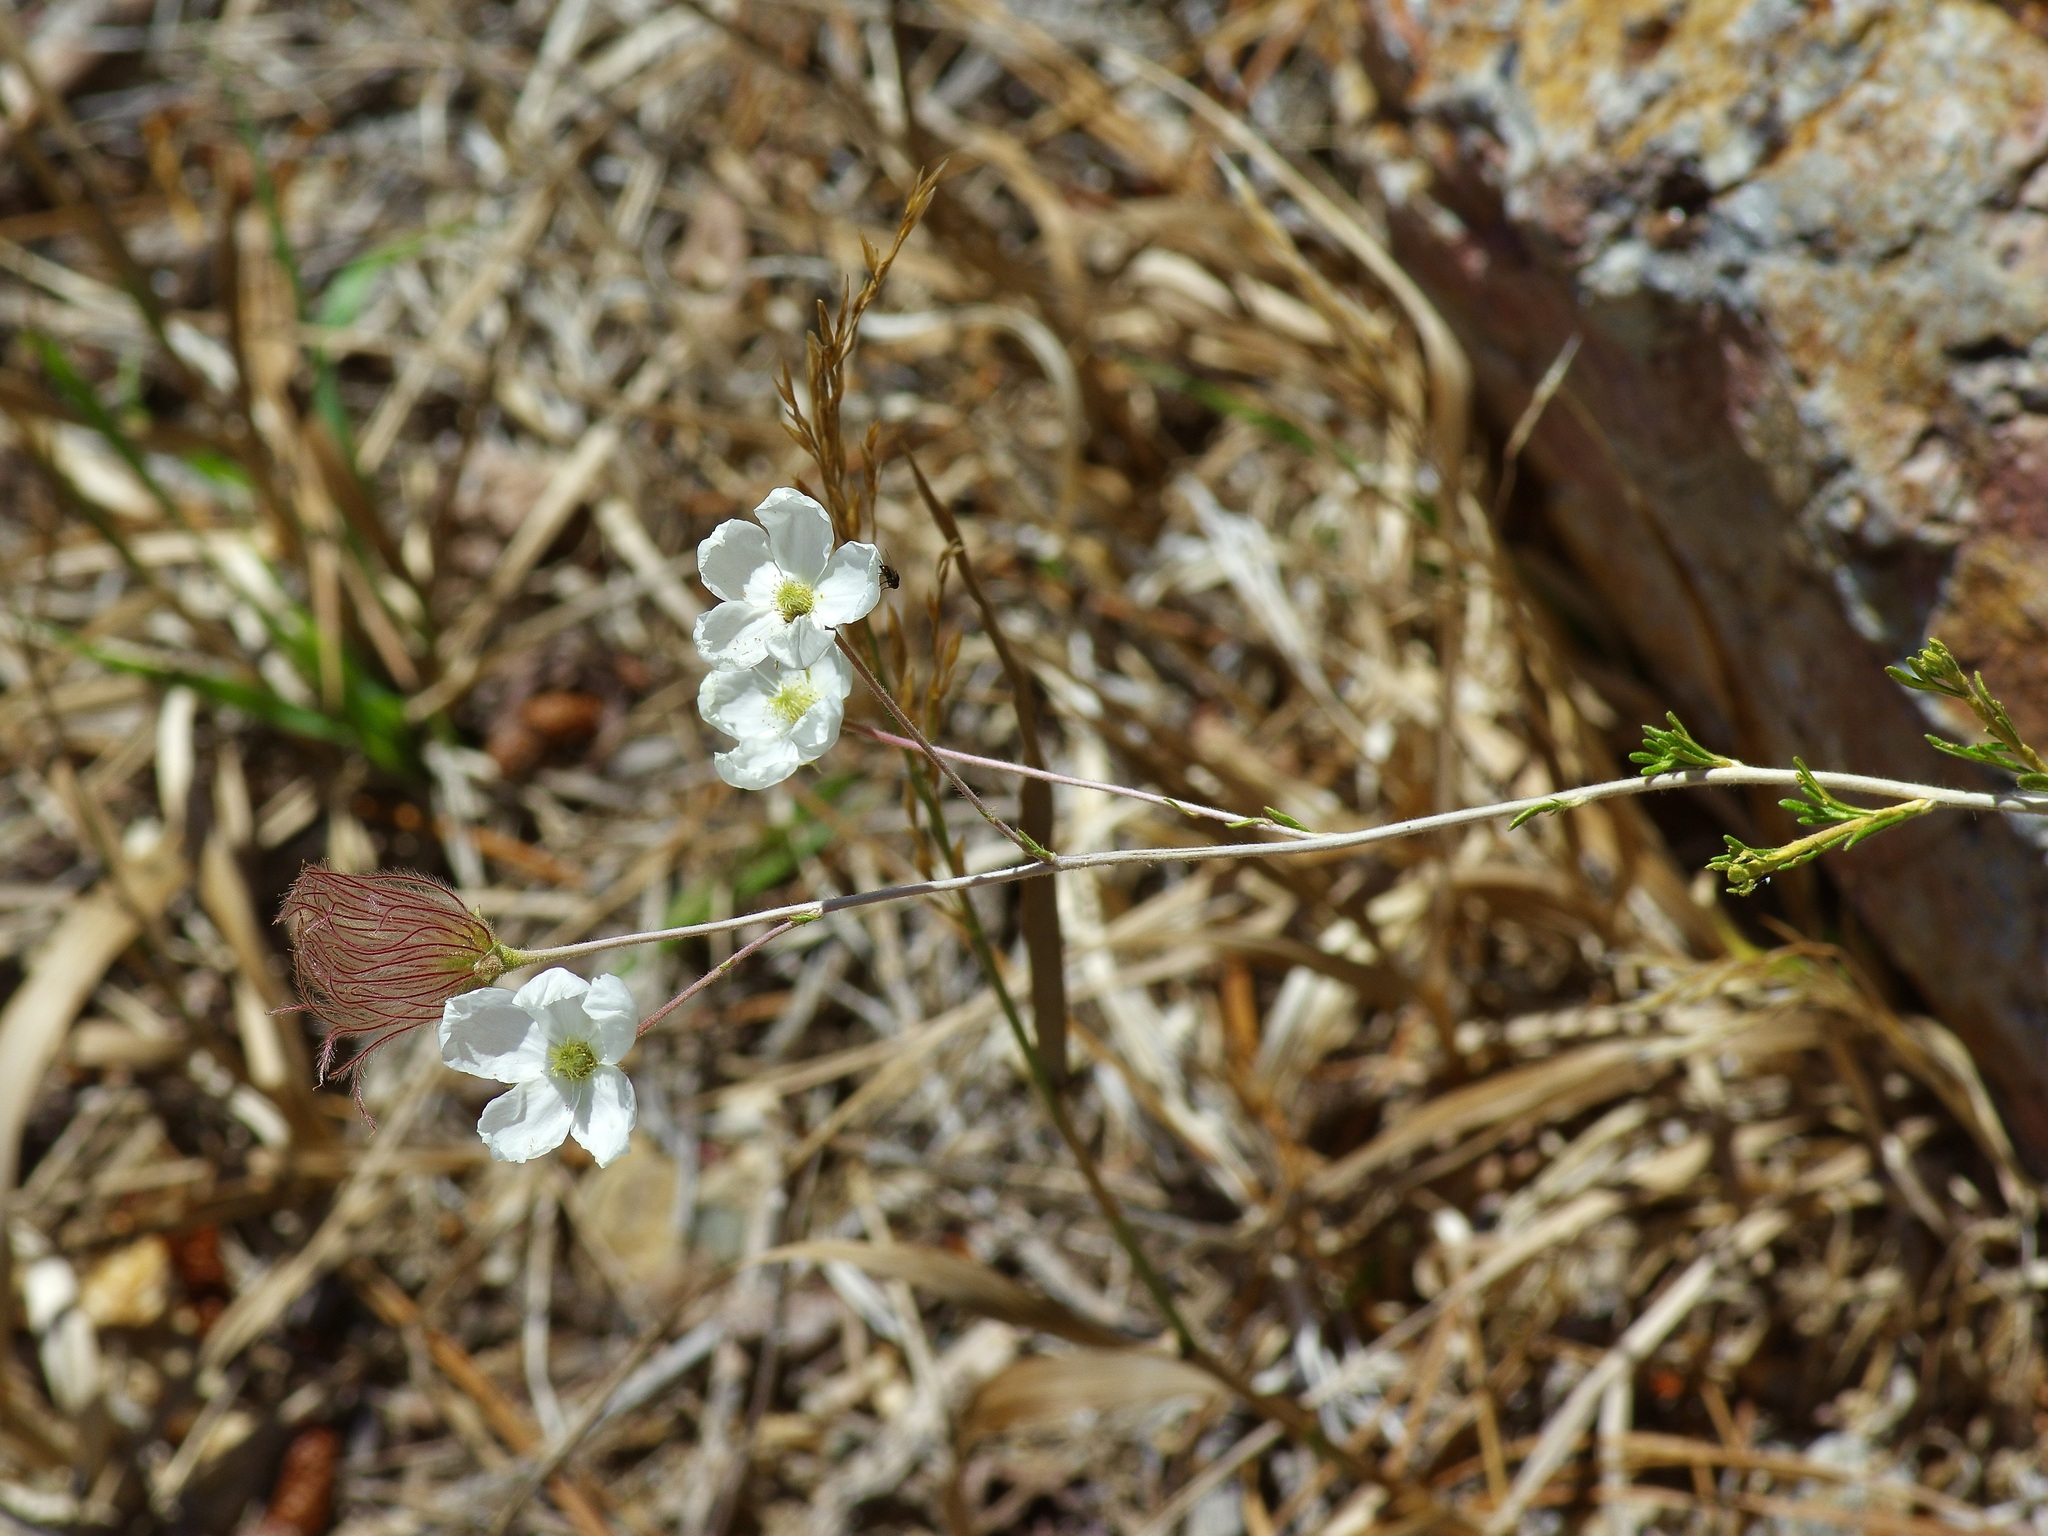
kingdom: Plantae
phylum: Tracheophyta
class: Magnoliopsida
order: Rosales
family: Rosaceae
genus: Fallugia
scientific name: Fallugia paradoxa
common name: Apache-plume
